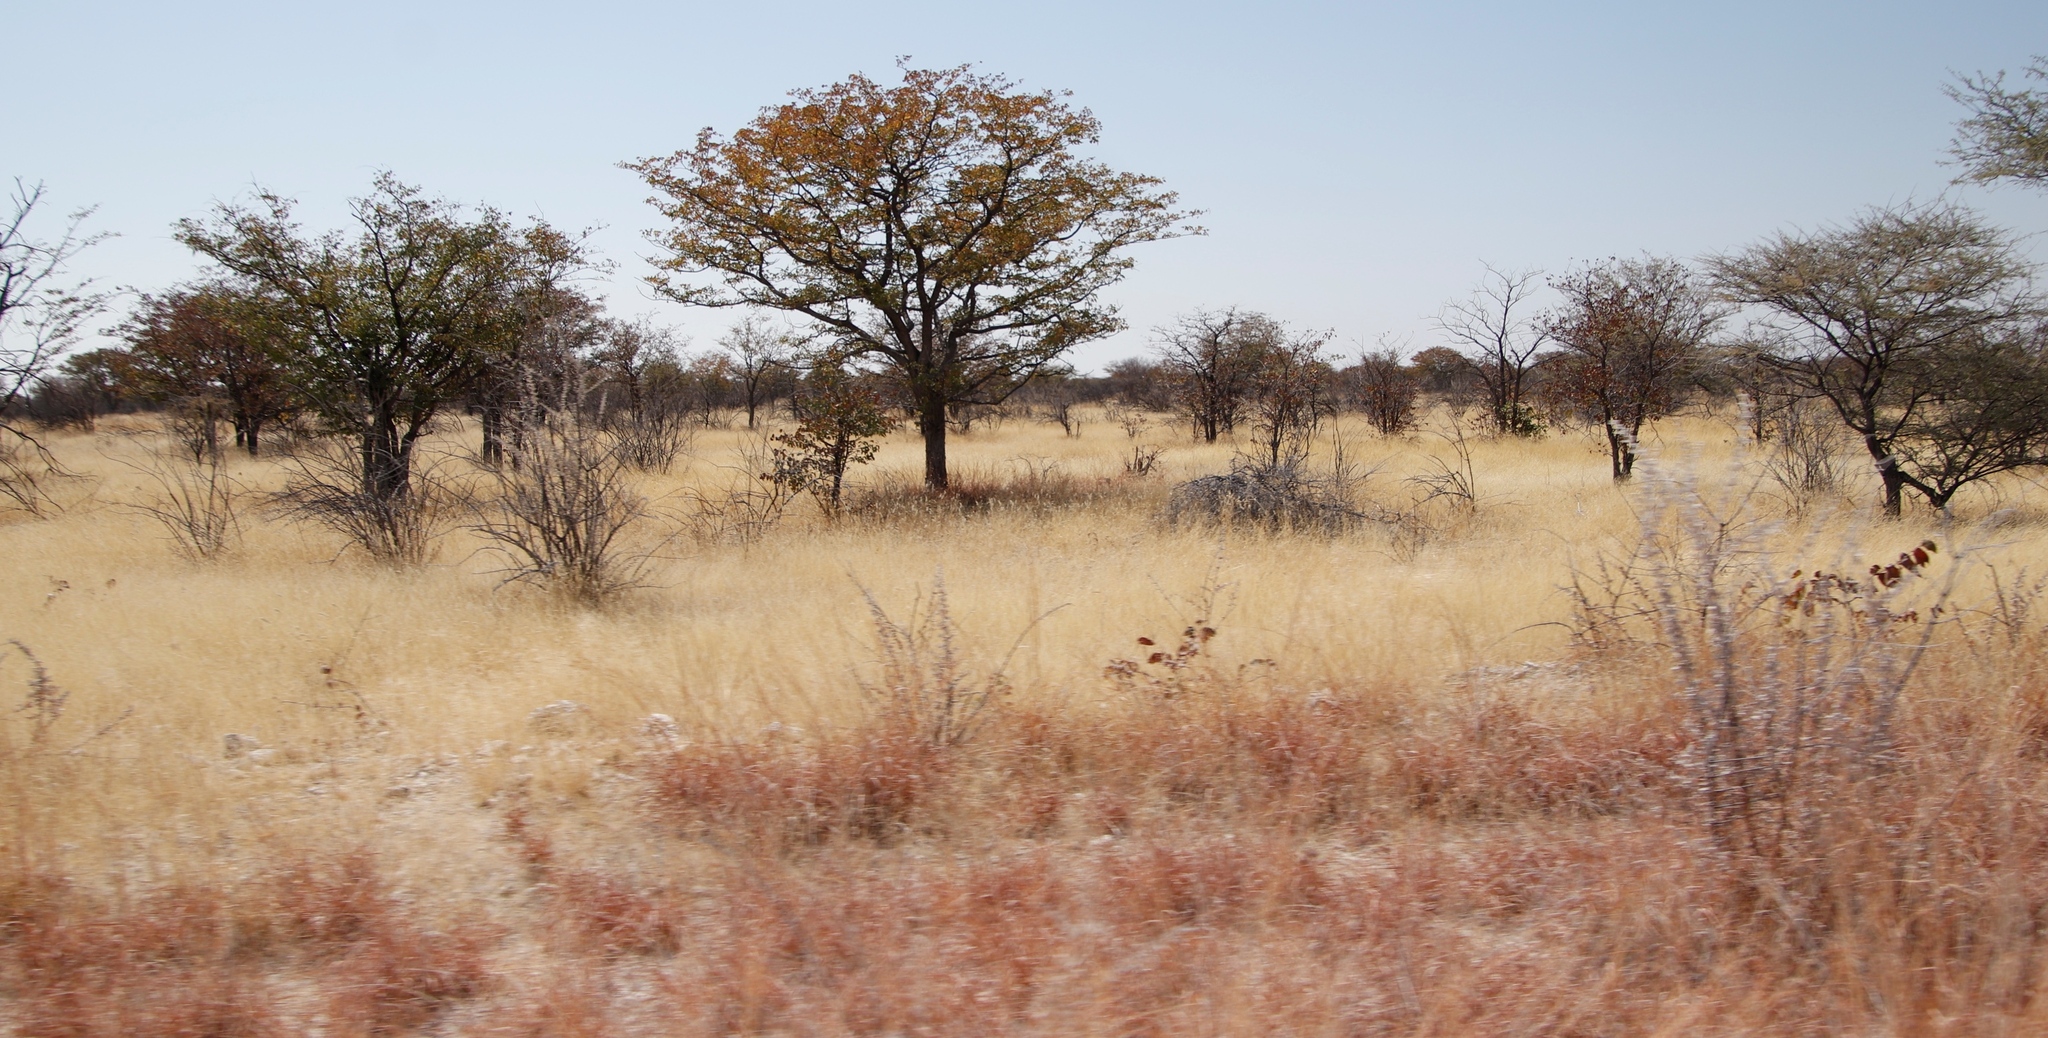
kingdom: Plantae
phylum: Tracheophyta
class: Magnoliopsida
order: Fabales
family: Fabaceae
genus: Colophospermum
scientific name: Colophospermum mopane
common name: Mopane
